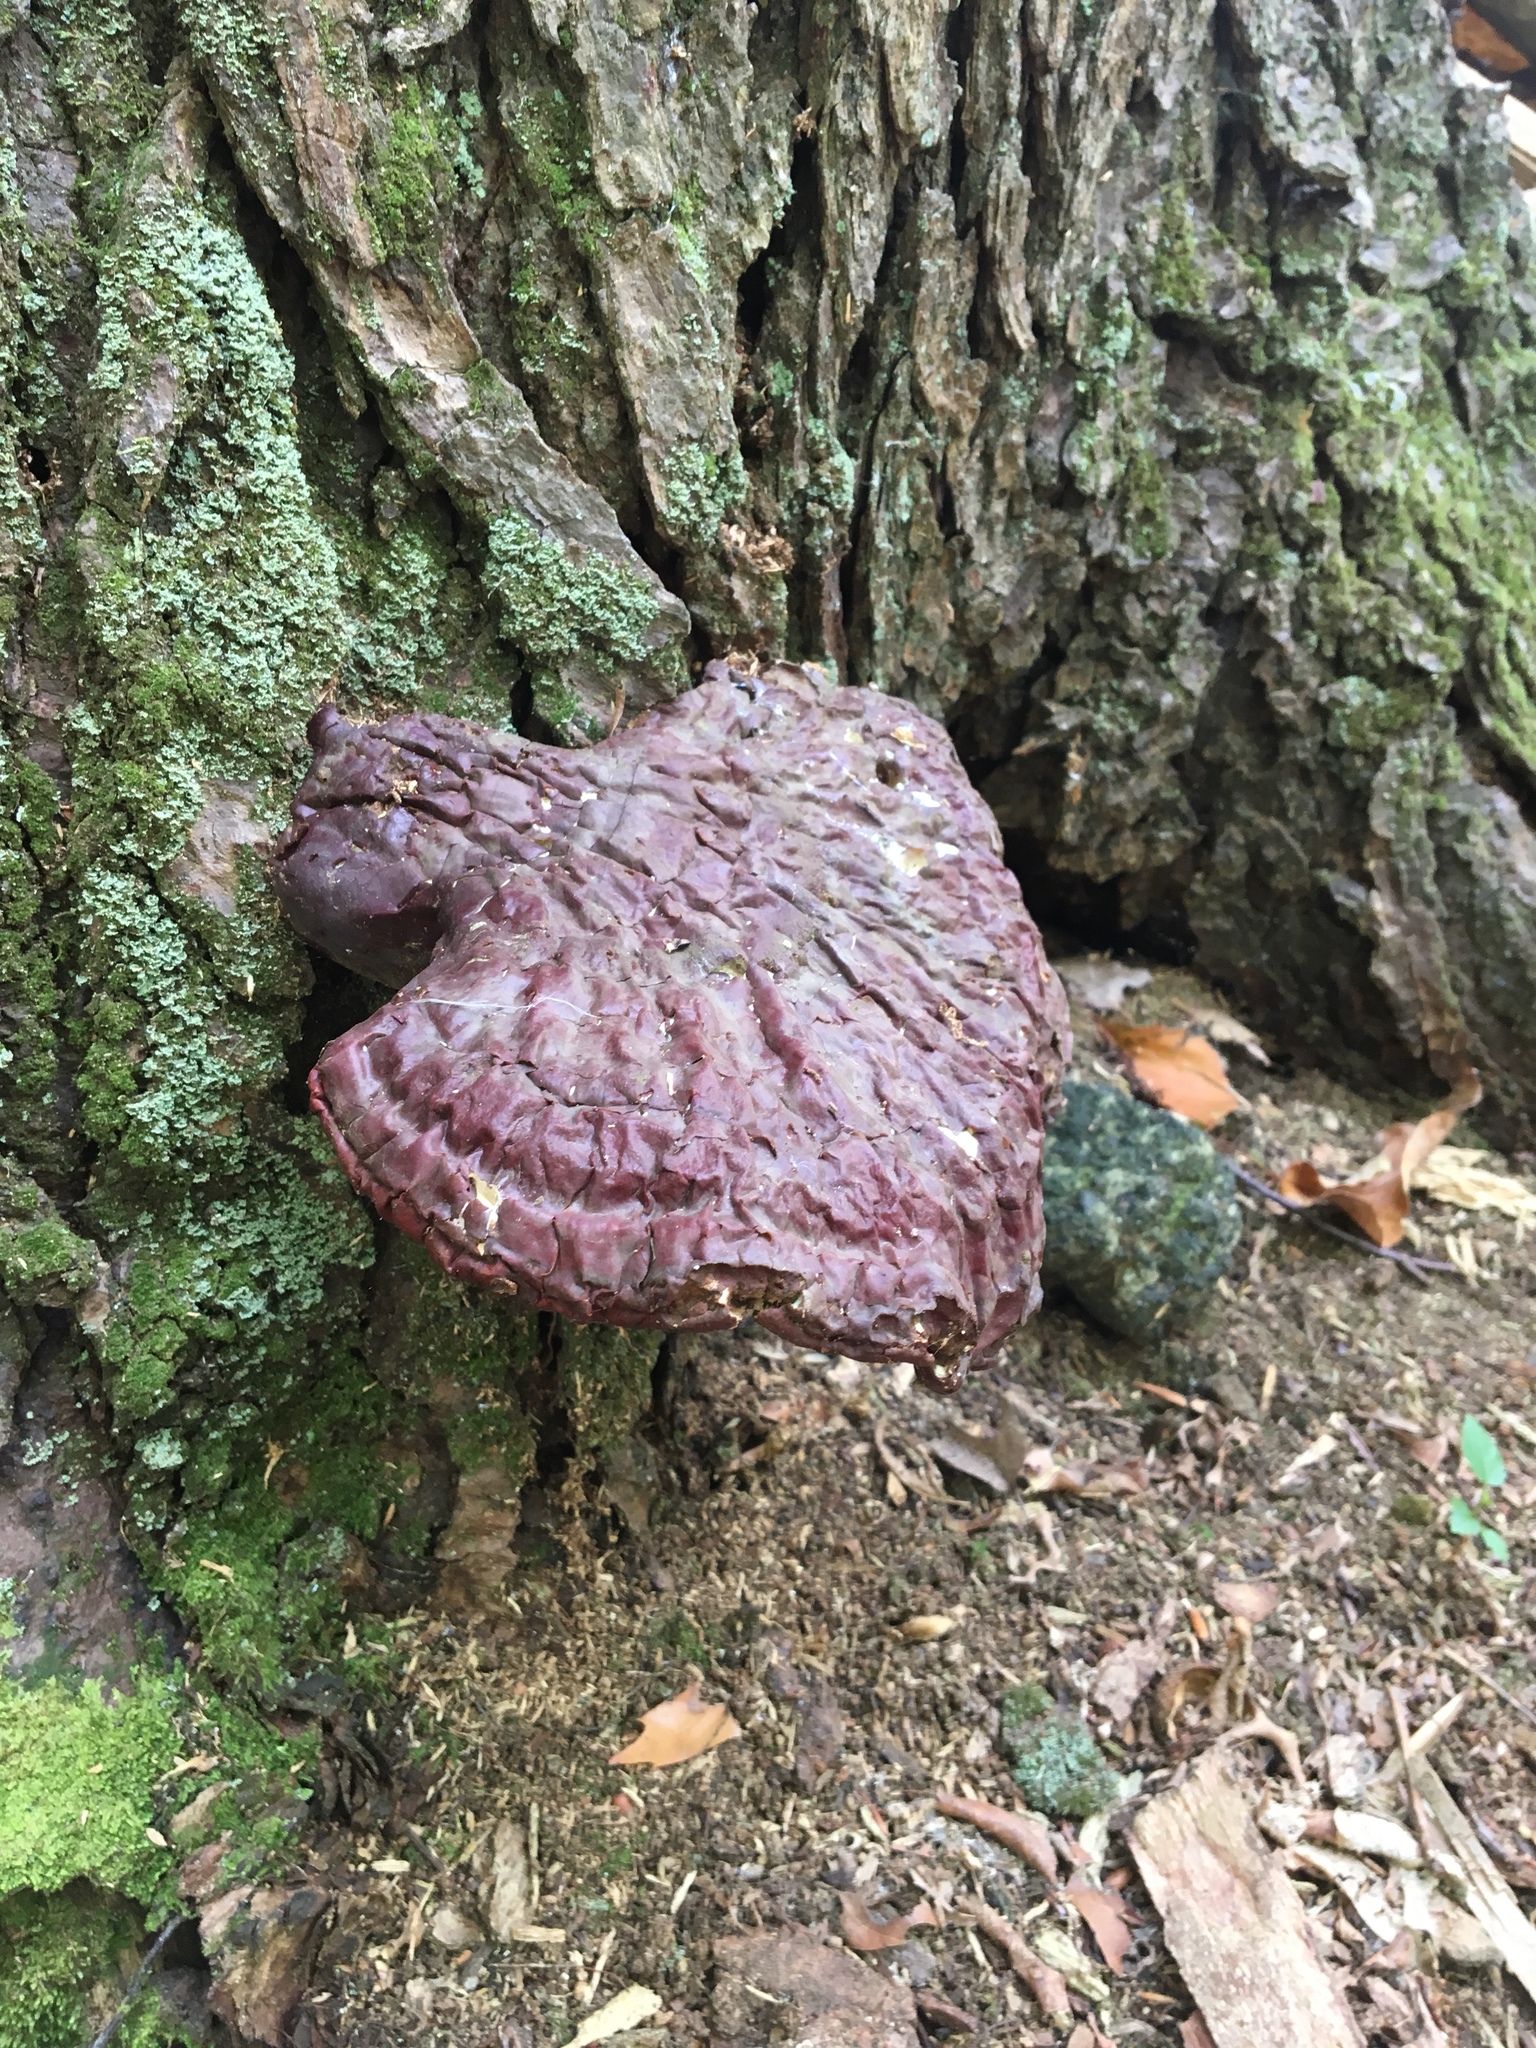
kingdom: Fungi
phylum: Basidiomycota
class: Agaricomycetes
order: Polyporales
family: Polyporaceae
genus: Ganoderma
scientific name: Ganoderma tsugae
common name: Hemlock varnish shelf
